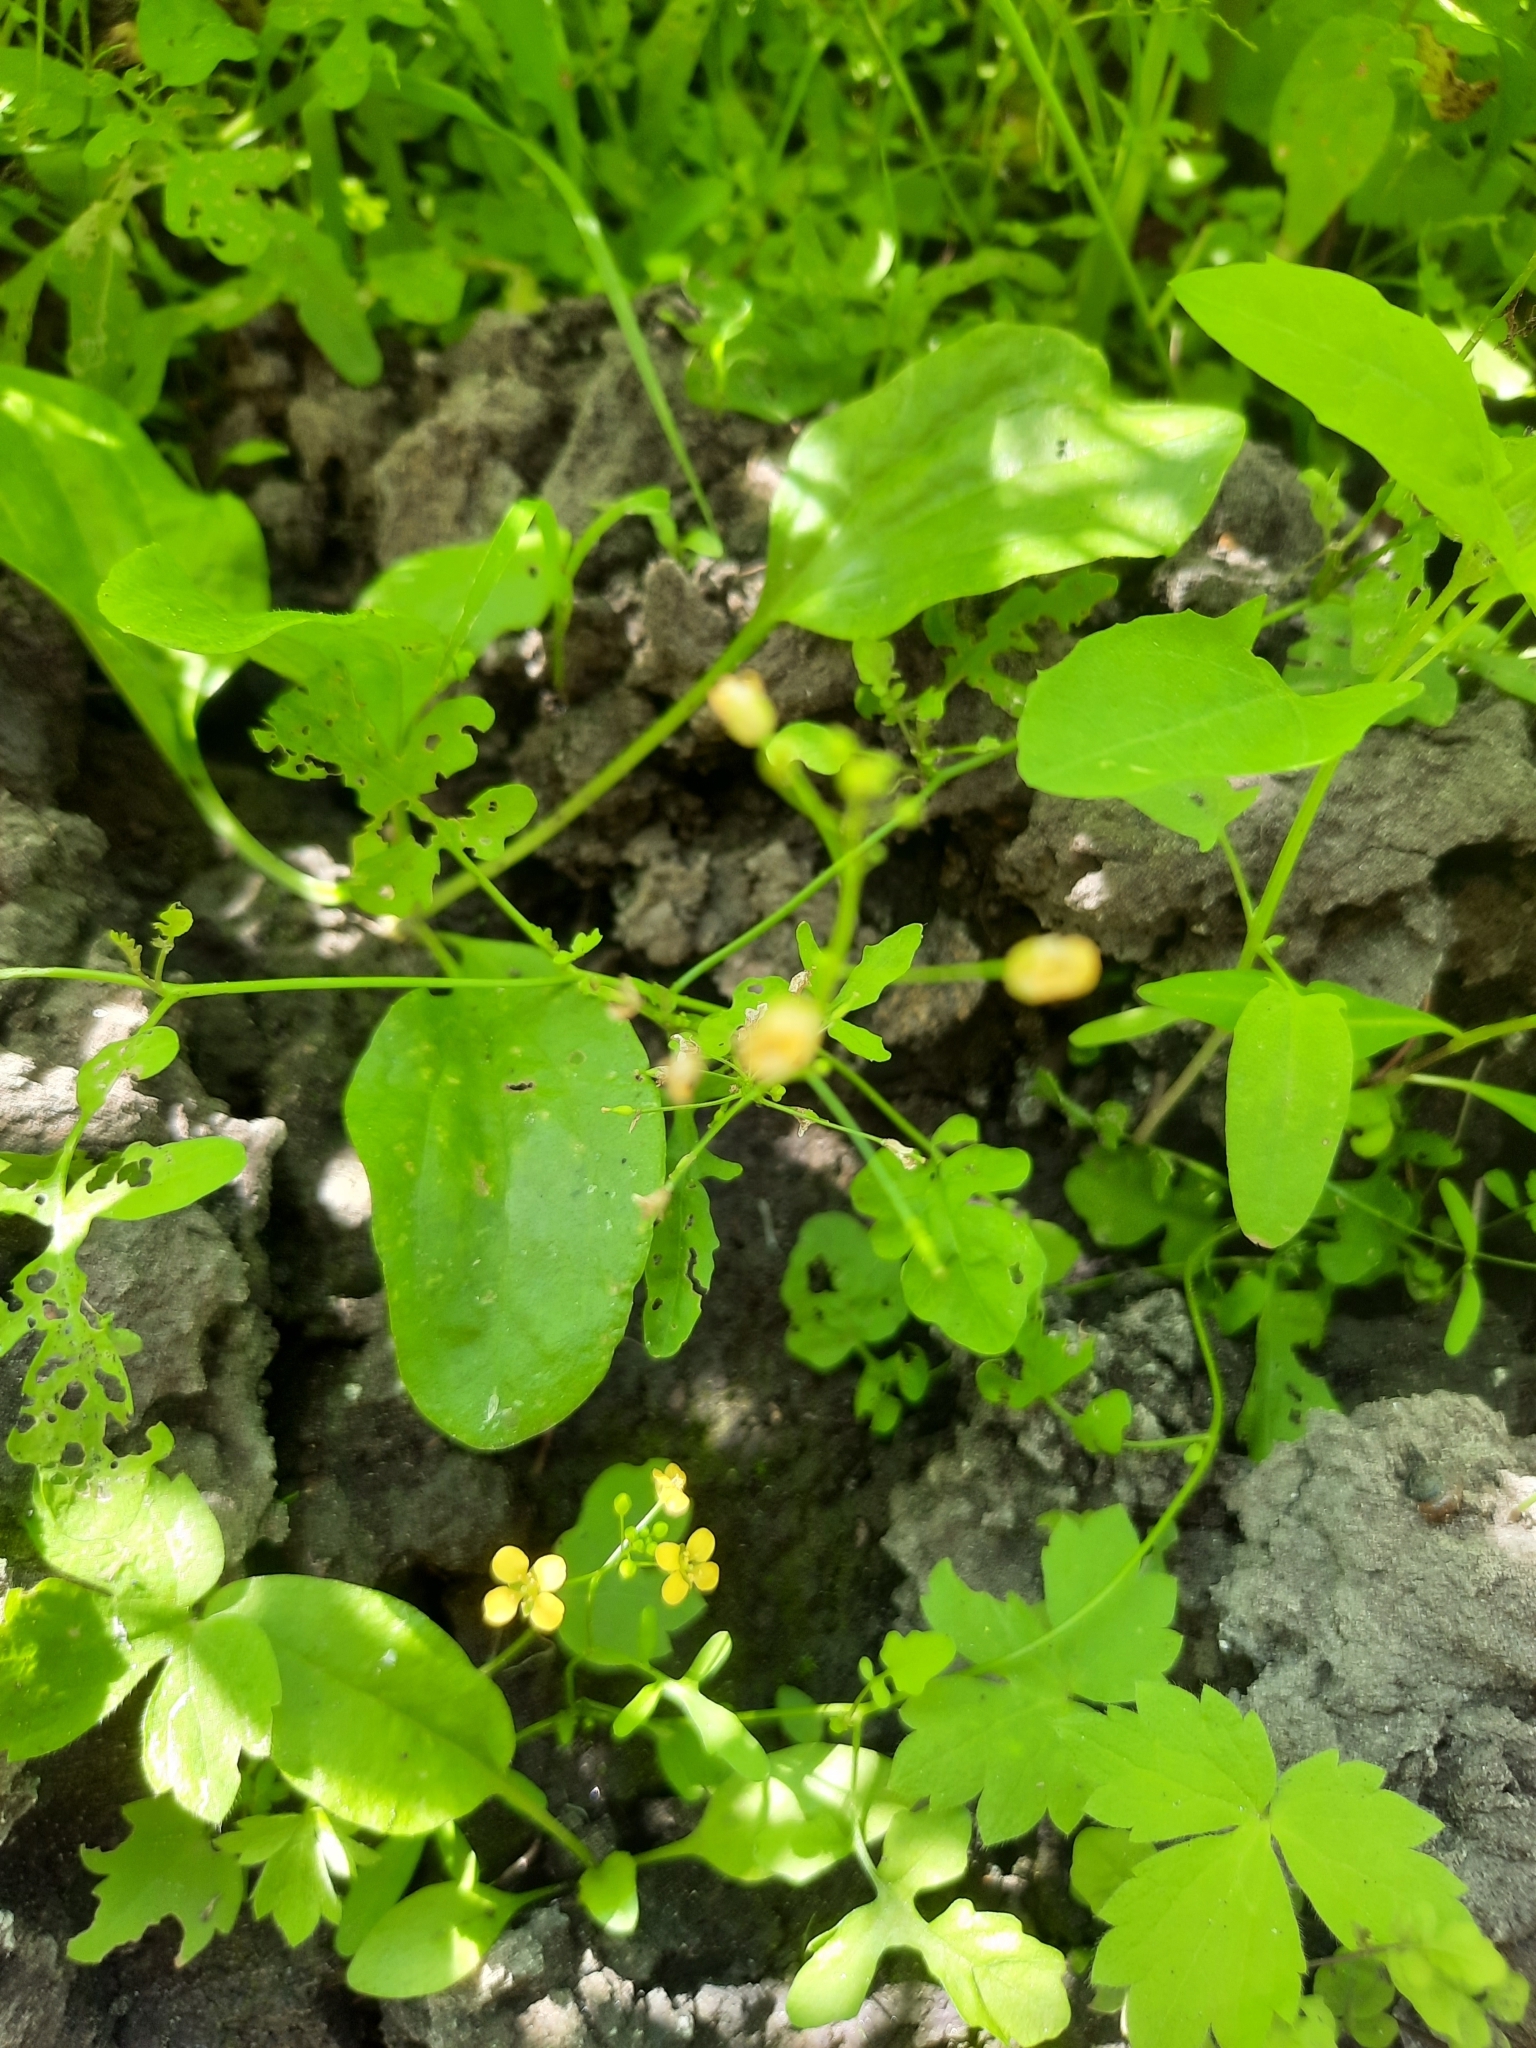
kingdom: Plantae
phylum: Tracheophyta
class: Magnoliopsida
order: Brassicales
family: Brassicaceae
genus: Rorippa
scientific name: Rorippa palustris
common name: Marsh yellow-cress
